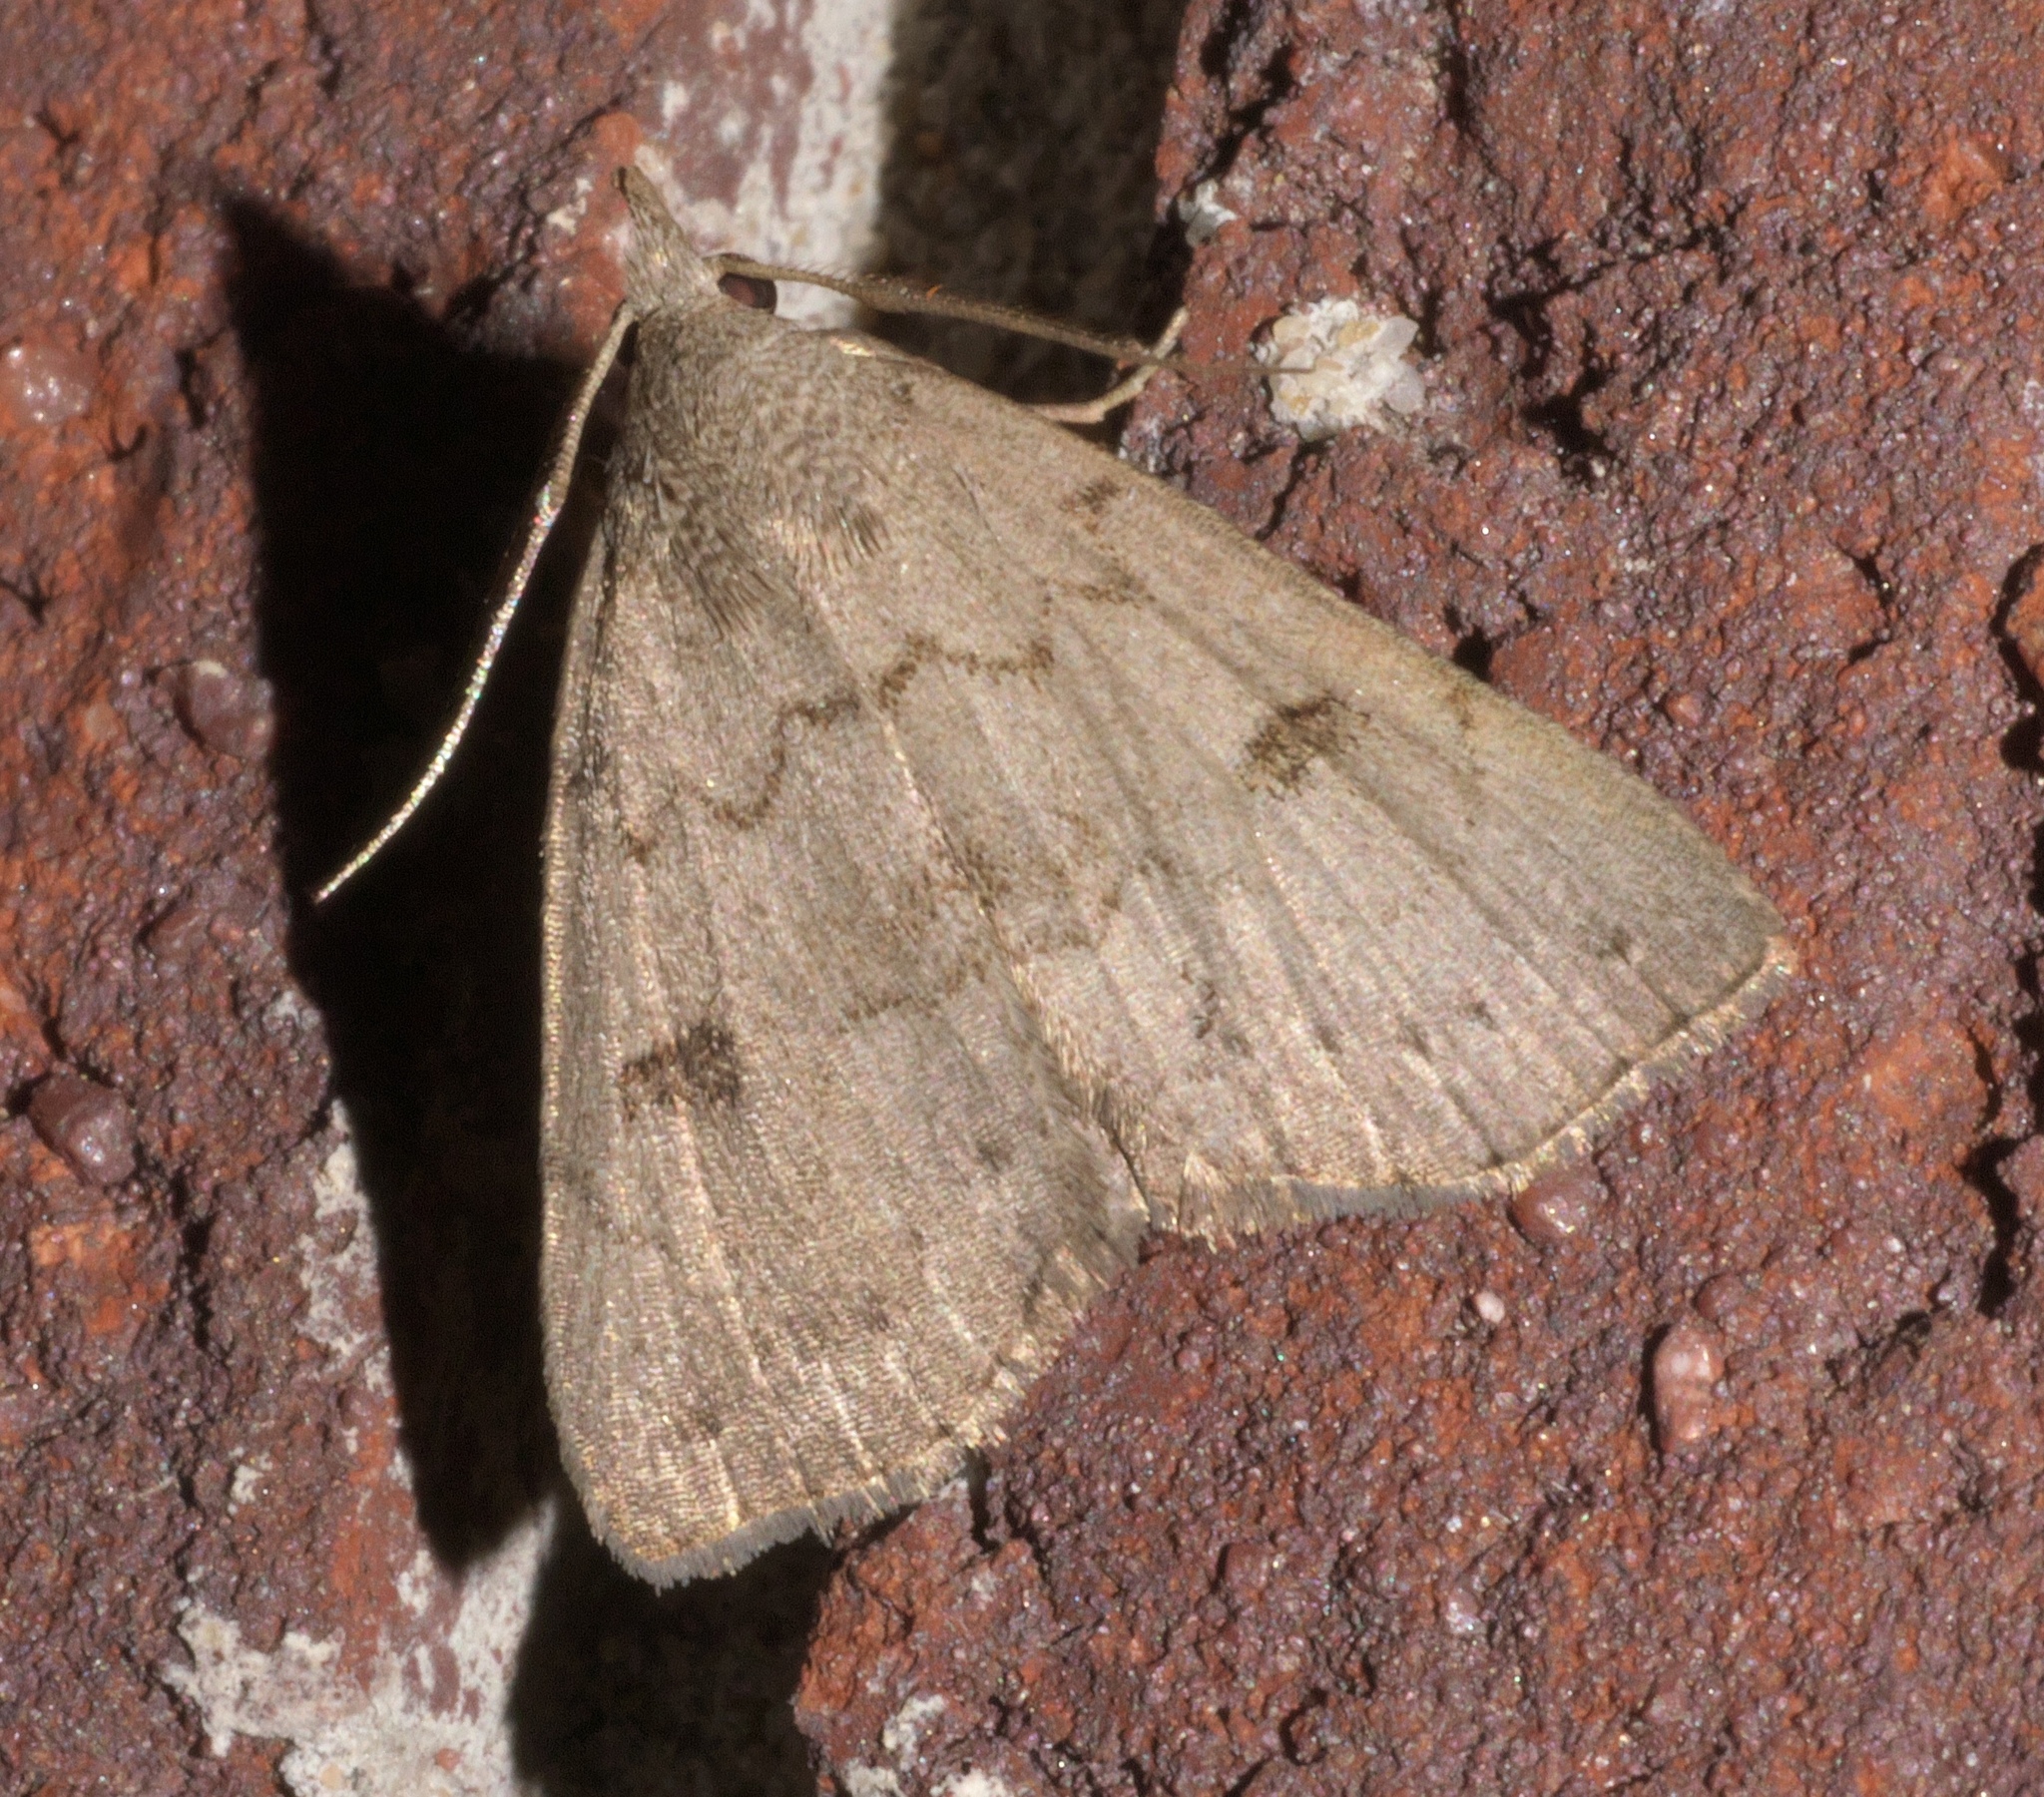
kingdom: Animalia
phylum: Arthropoda
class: Insecta
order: Lepidoptera
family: Erebidae
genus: Macrochilo
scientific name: Macrochilo morbidalis
